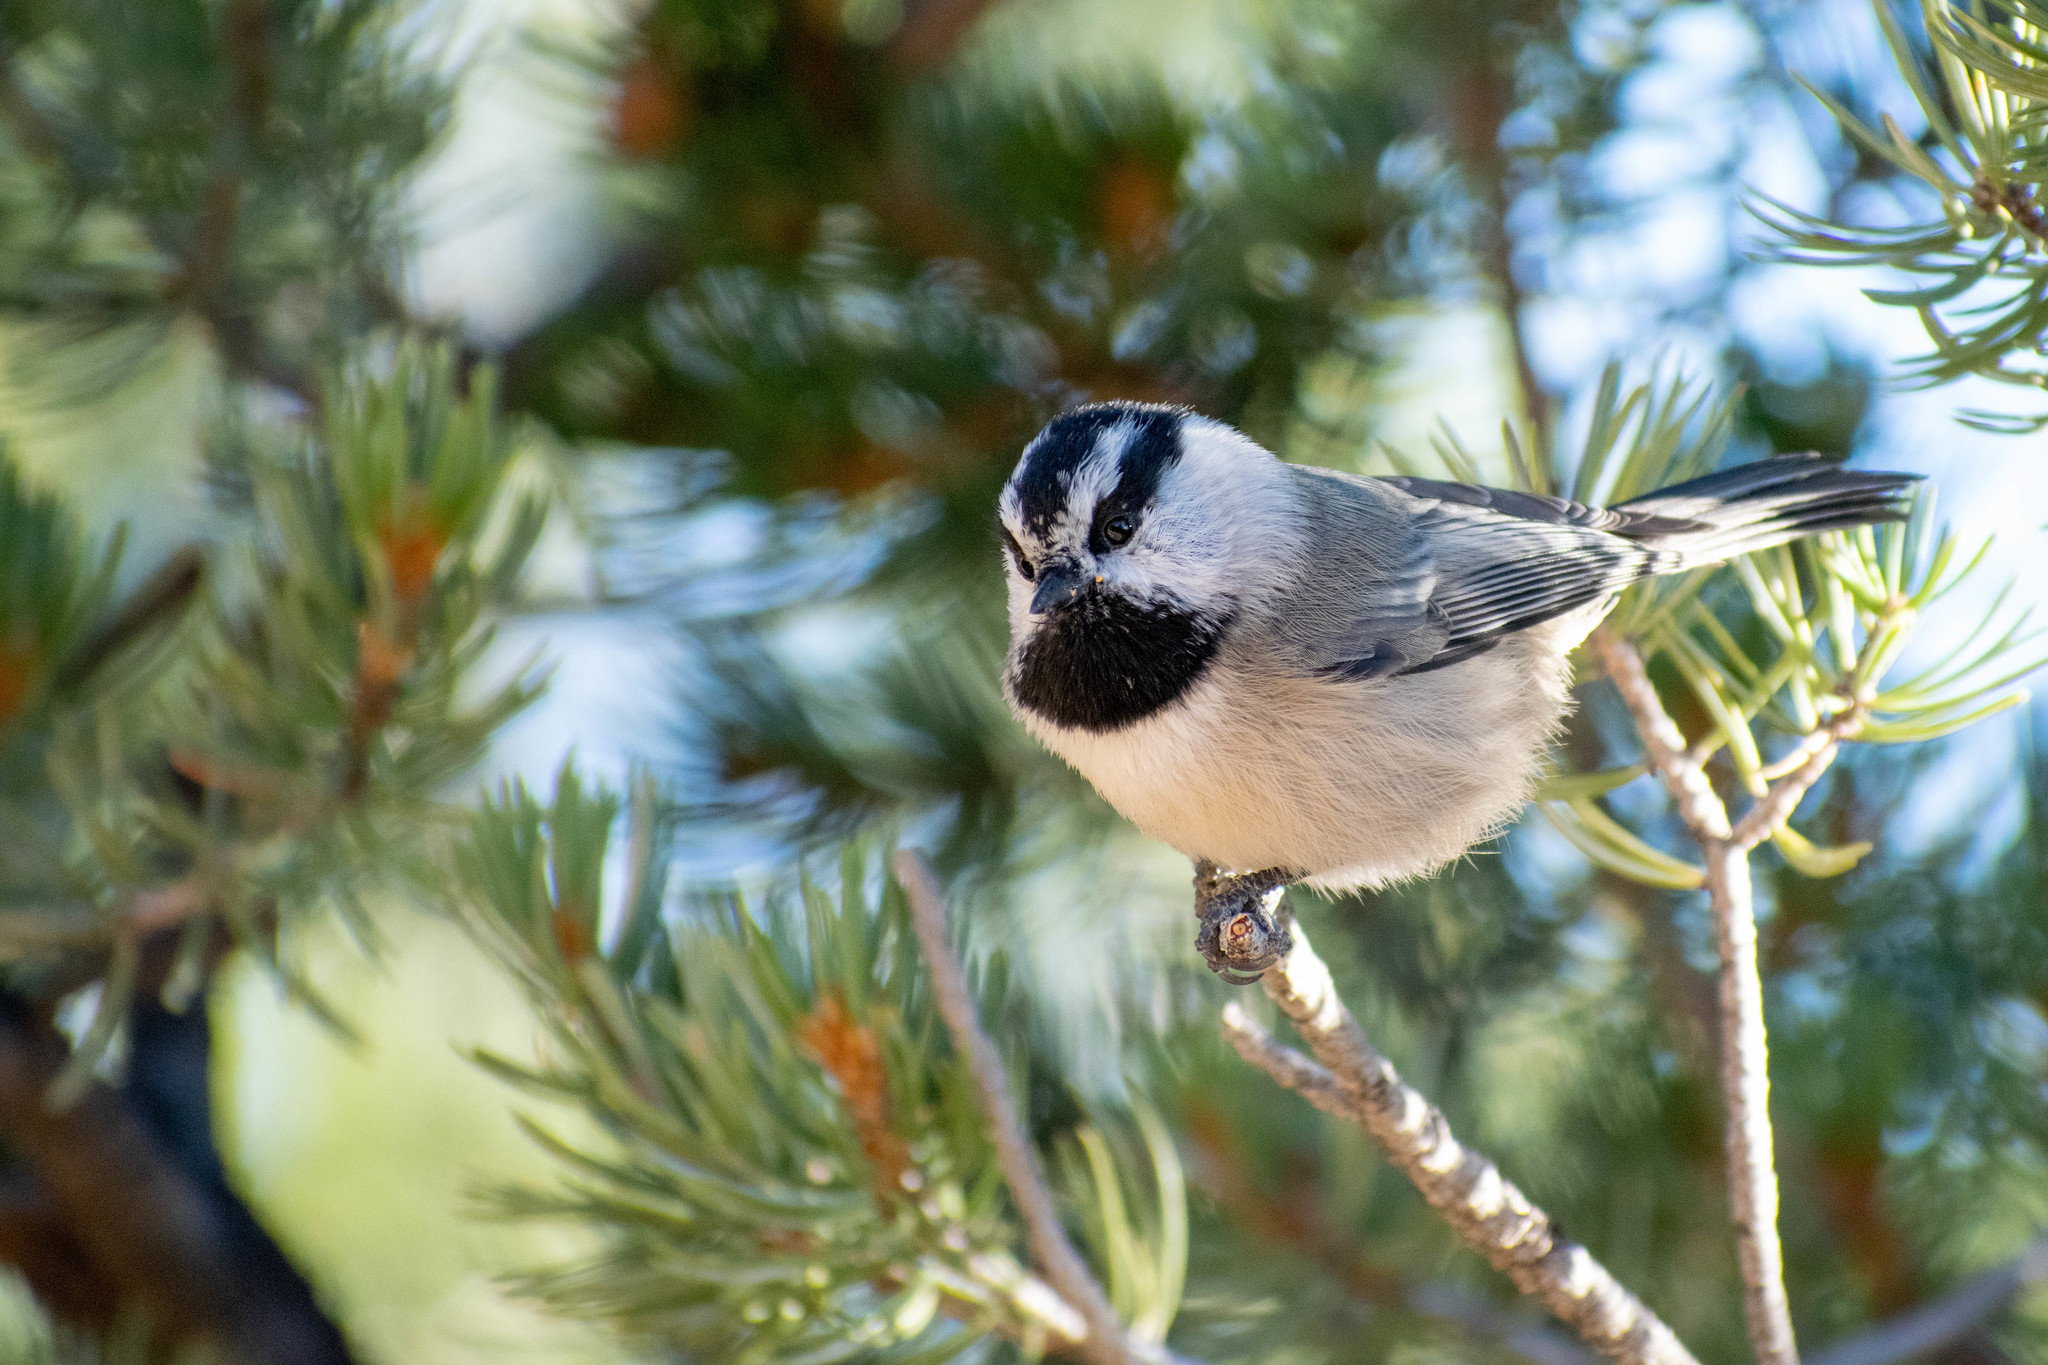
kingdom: Animalia
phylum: Chordata
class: Aves
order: Passeriformes
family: Paridae
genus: Poecile
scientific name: Poecile gambeli
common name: Mountain chickadee
